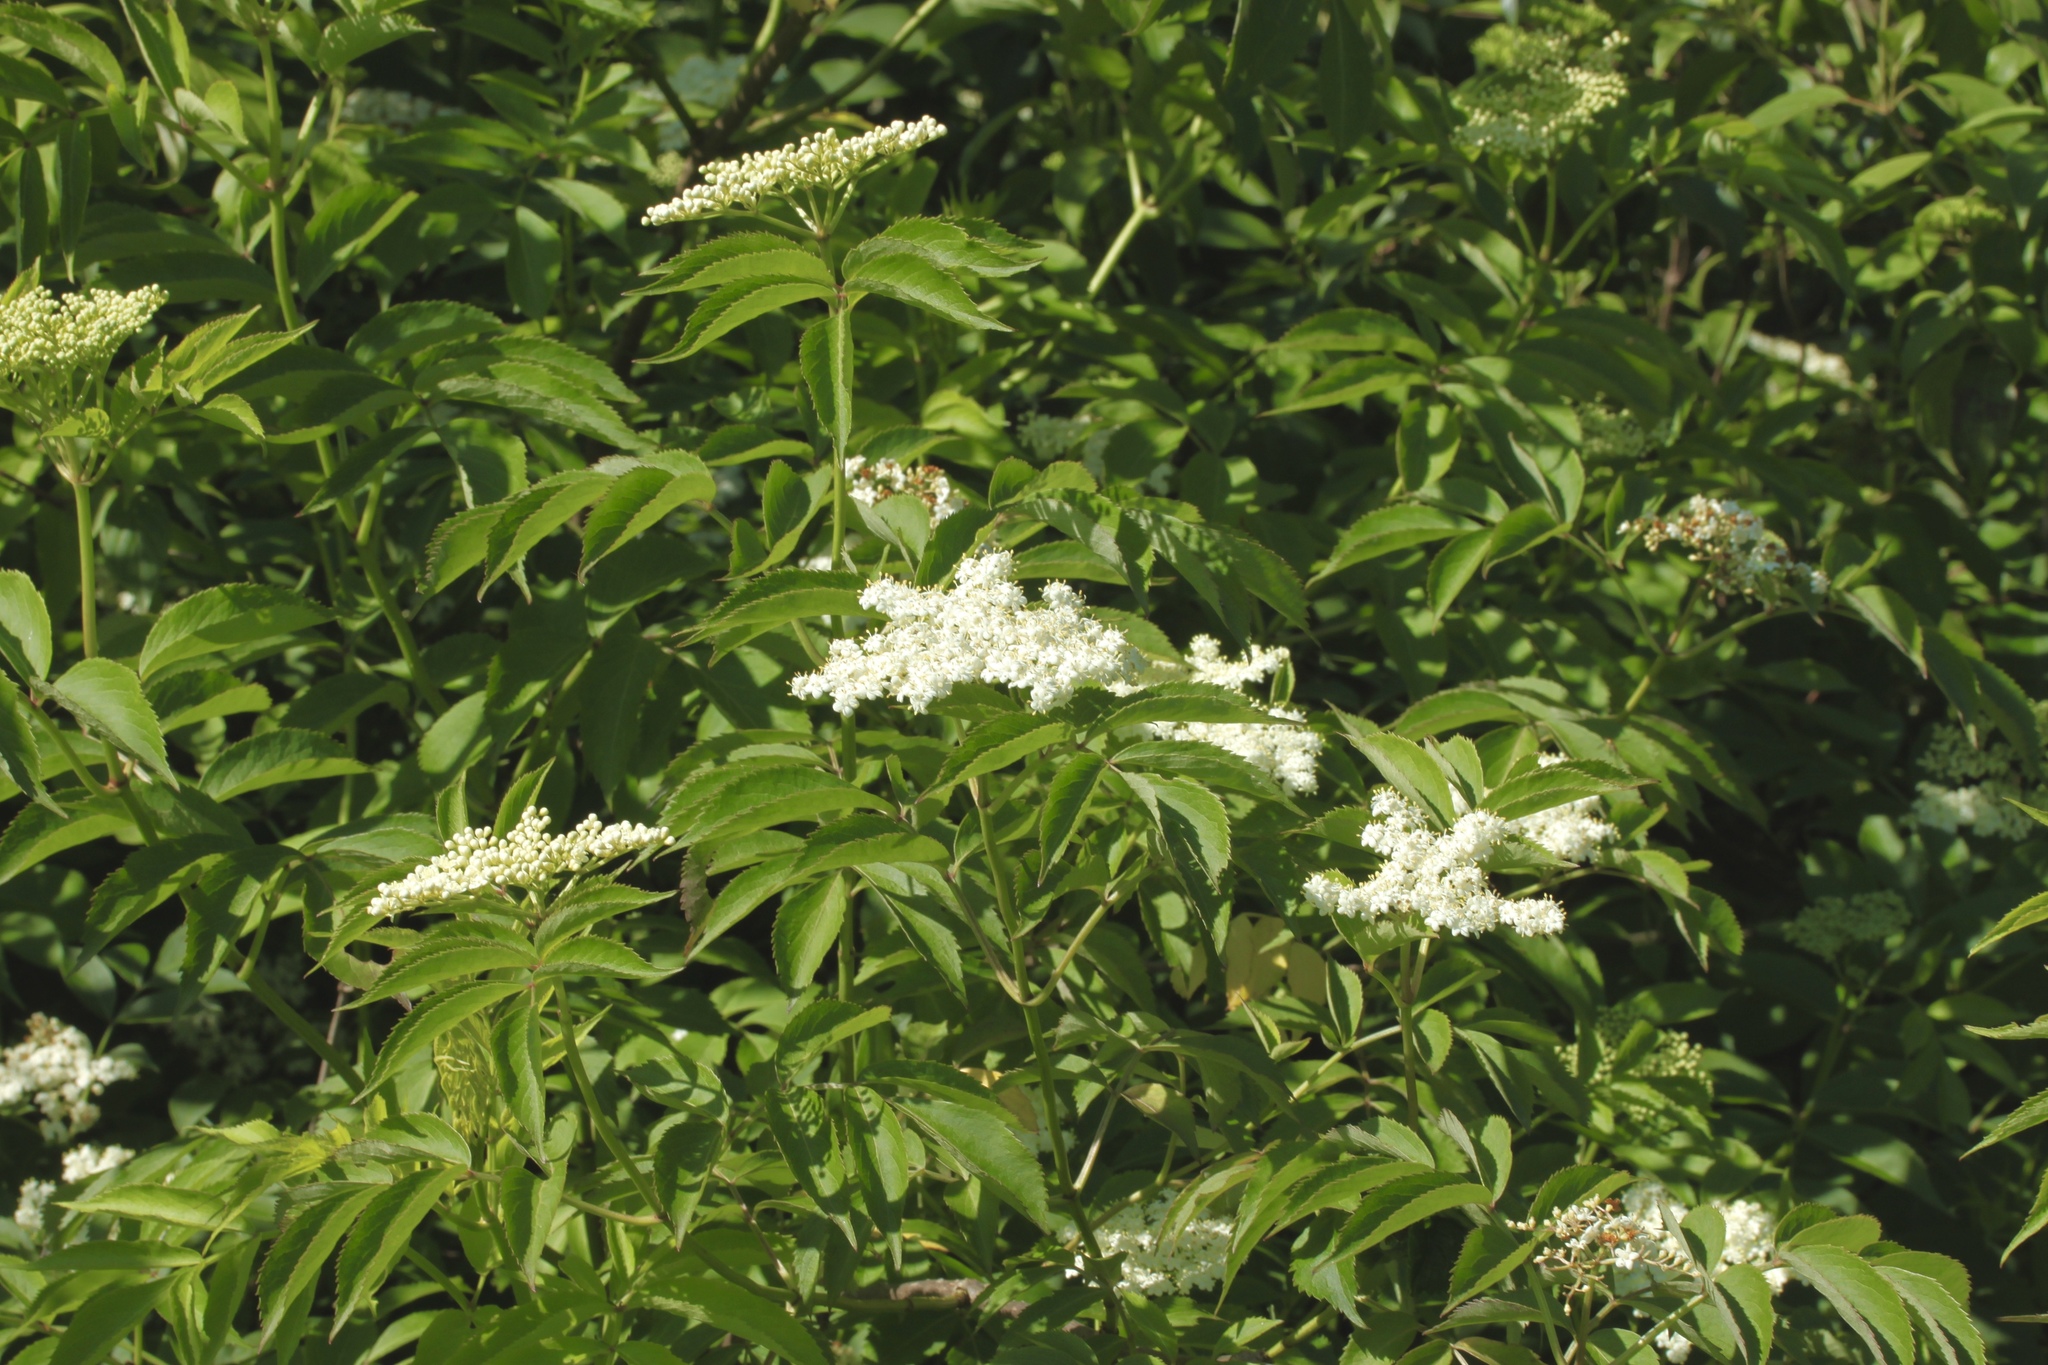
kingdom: Plantae
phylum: Tracheophyta
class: Magnoliopsida
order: Dipsacales
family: Viburnaceae
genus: Sambucus
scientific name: Sambucus canadensis
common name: American elder
